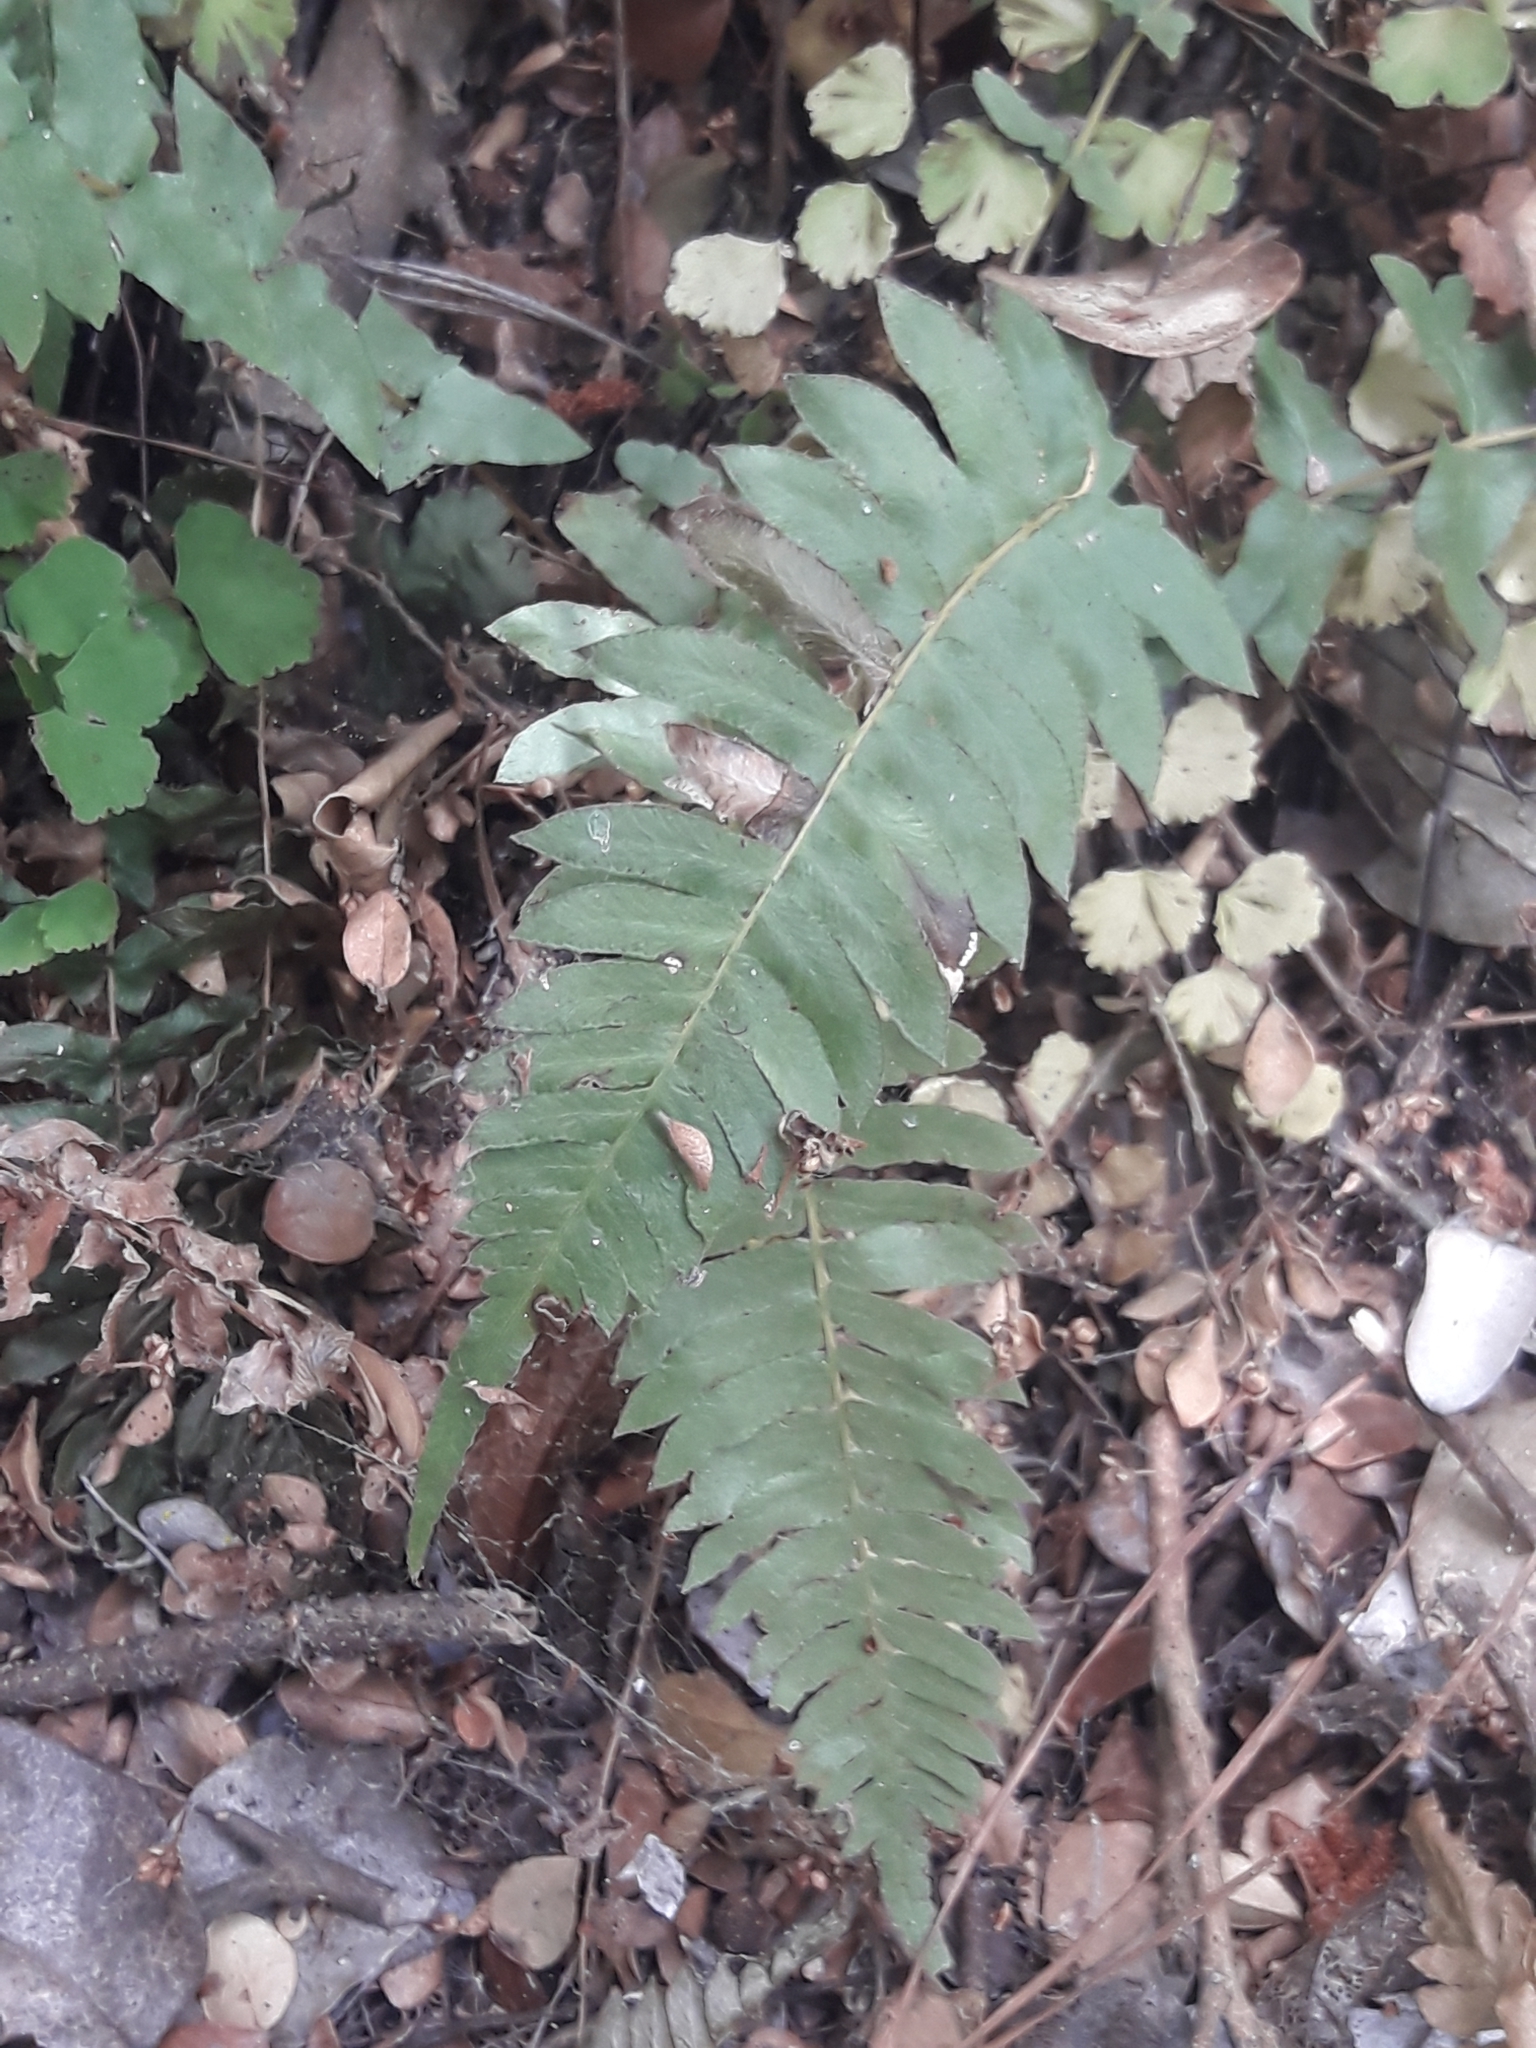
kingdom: Plantae
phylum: Tracheophyta
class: Polypodiopsida
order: Polypodiales
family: Blechnaceae
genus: Blechnum
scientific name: Blechnum hastatum
